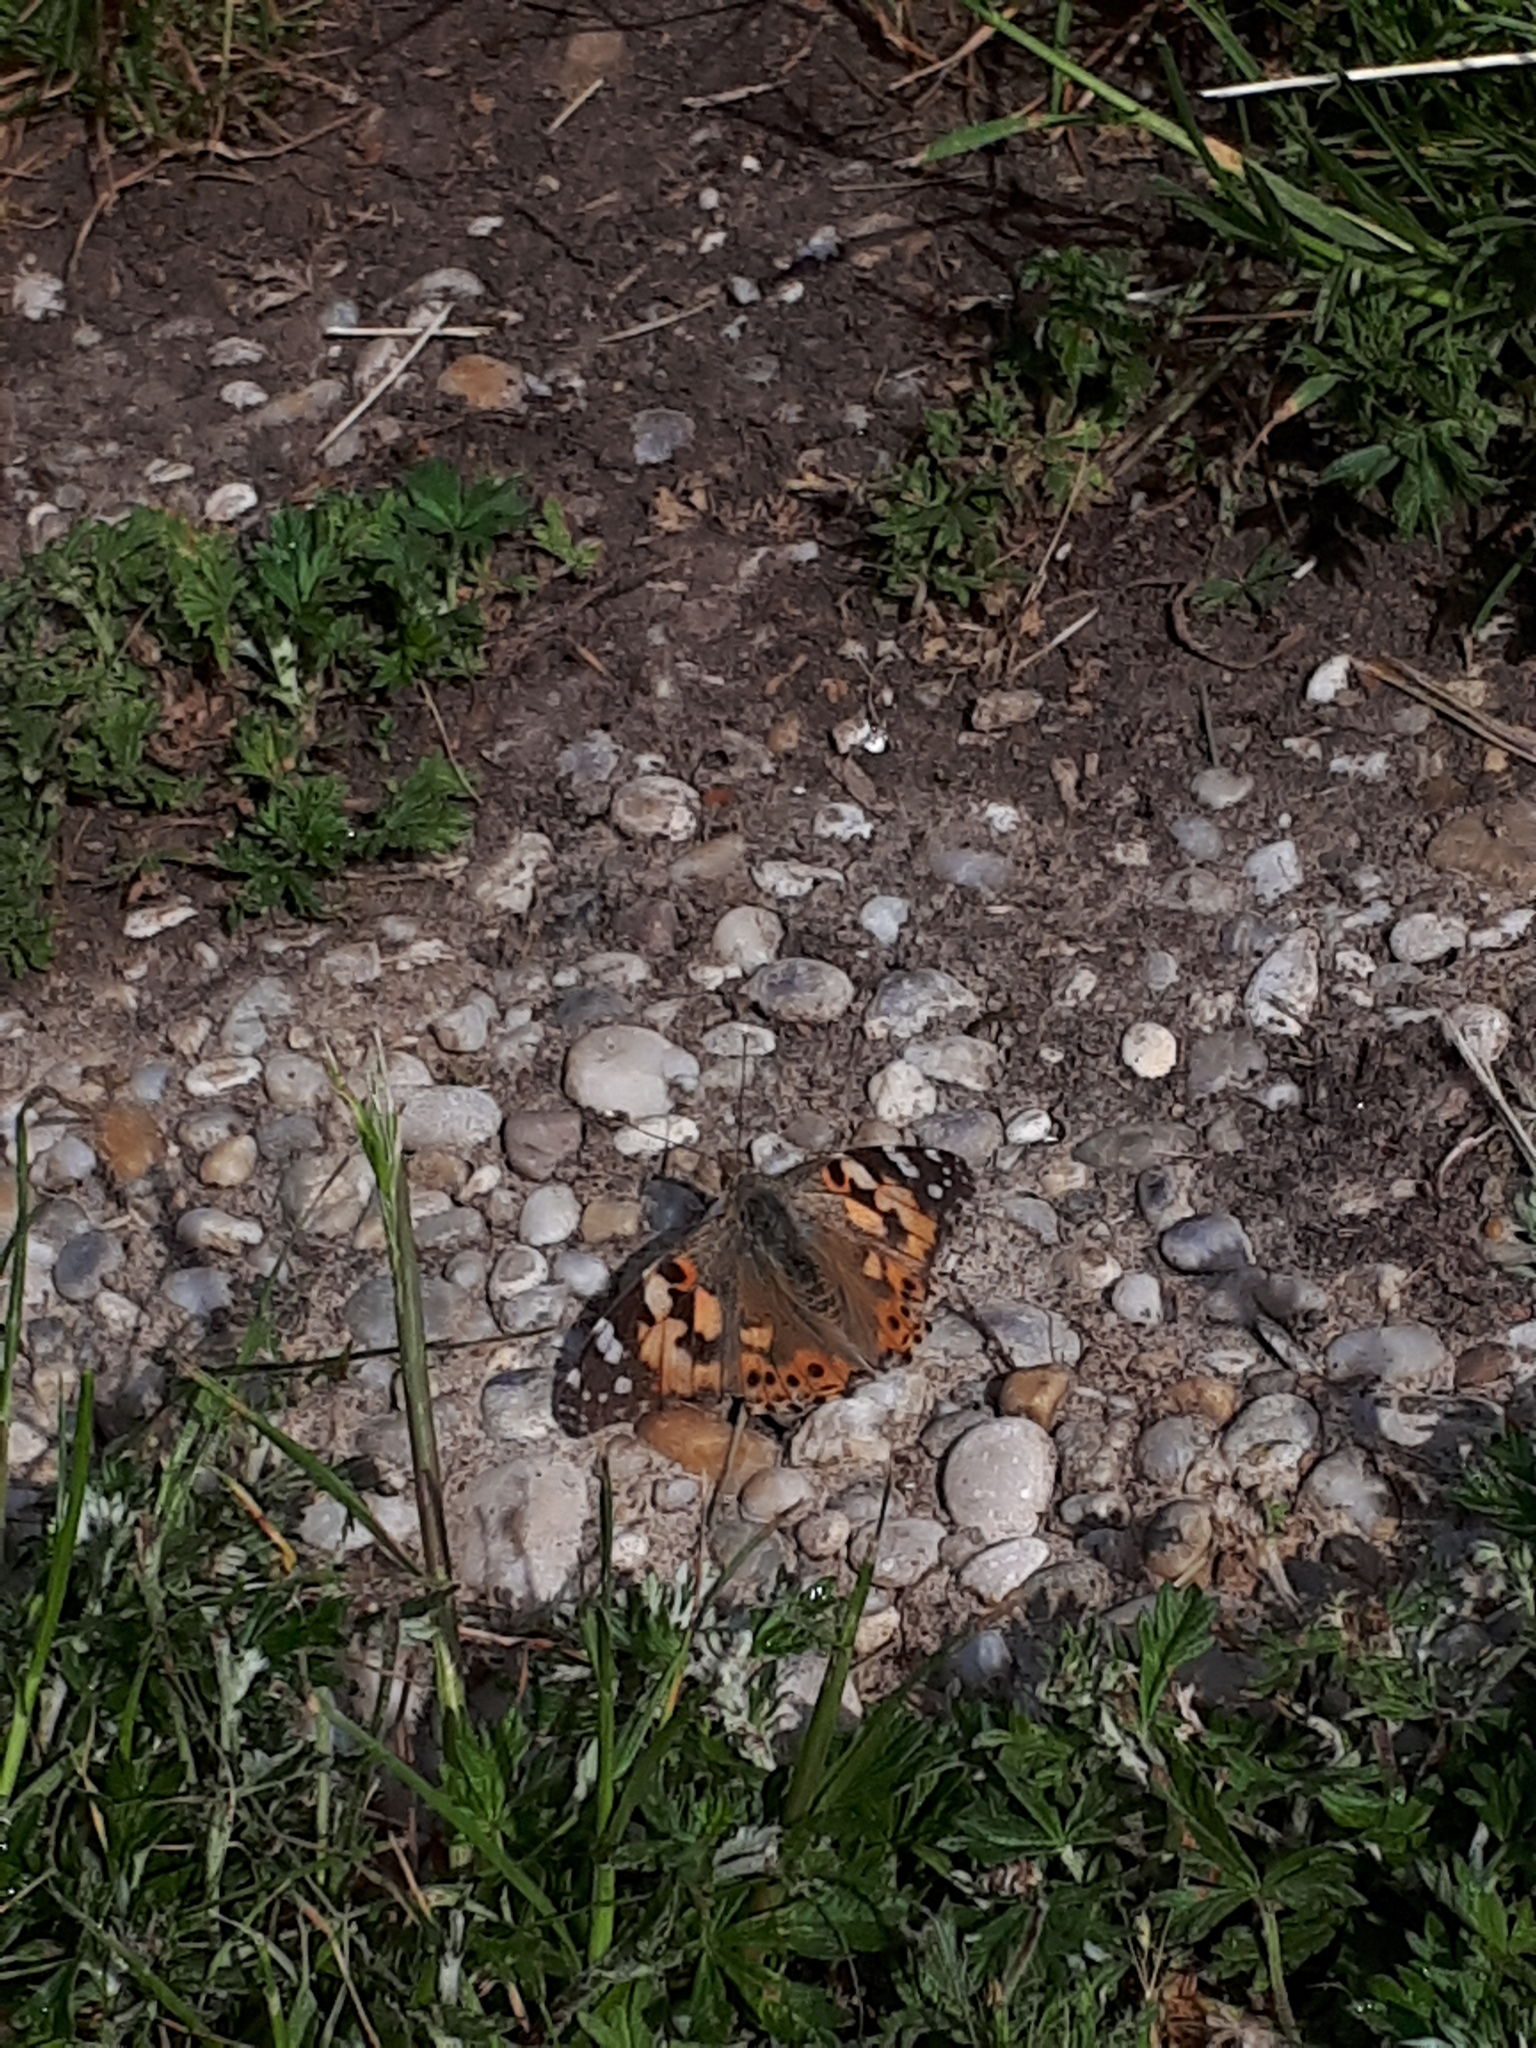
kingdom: Animalia
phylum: Arthropoda
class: Insecta
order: Lepidoptera
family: Nymphalidae
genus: Vanessa
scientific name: Vanessa cardui
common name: Painted lady
